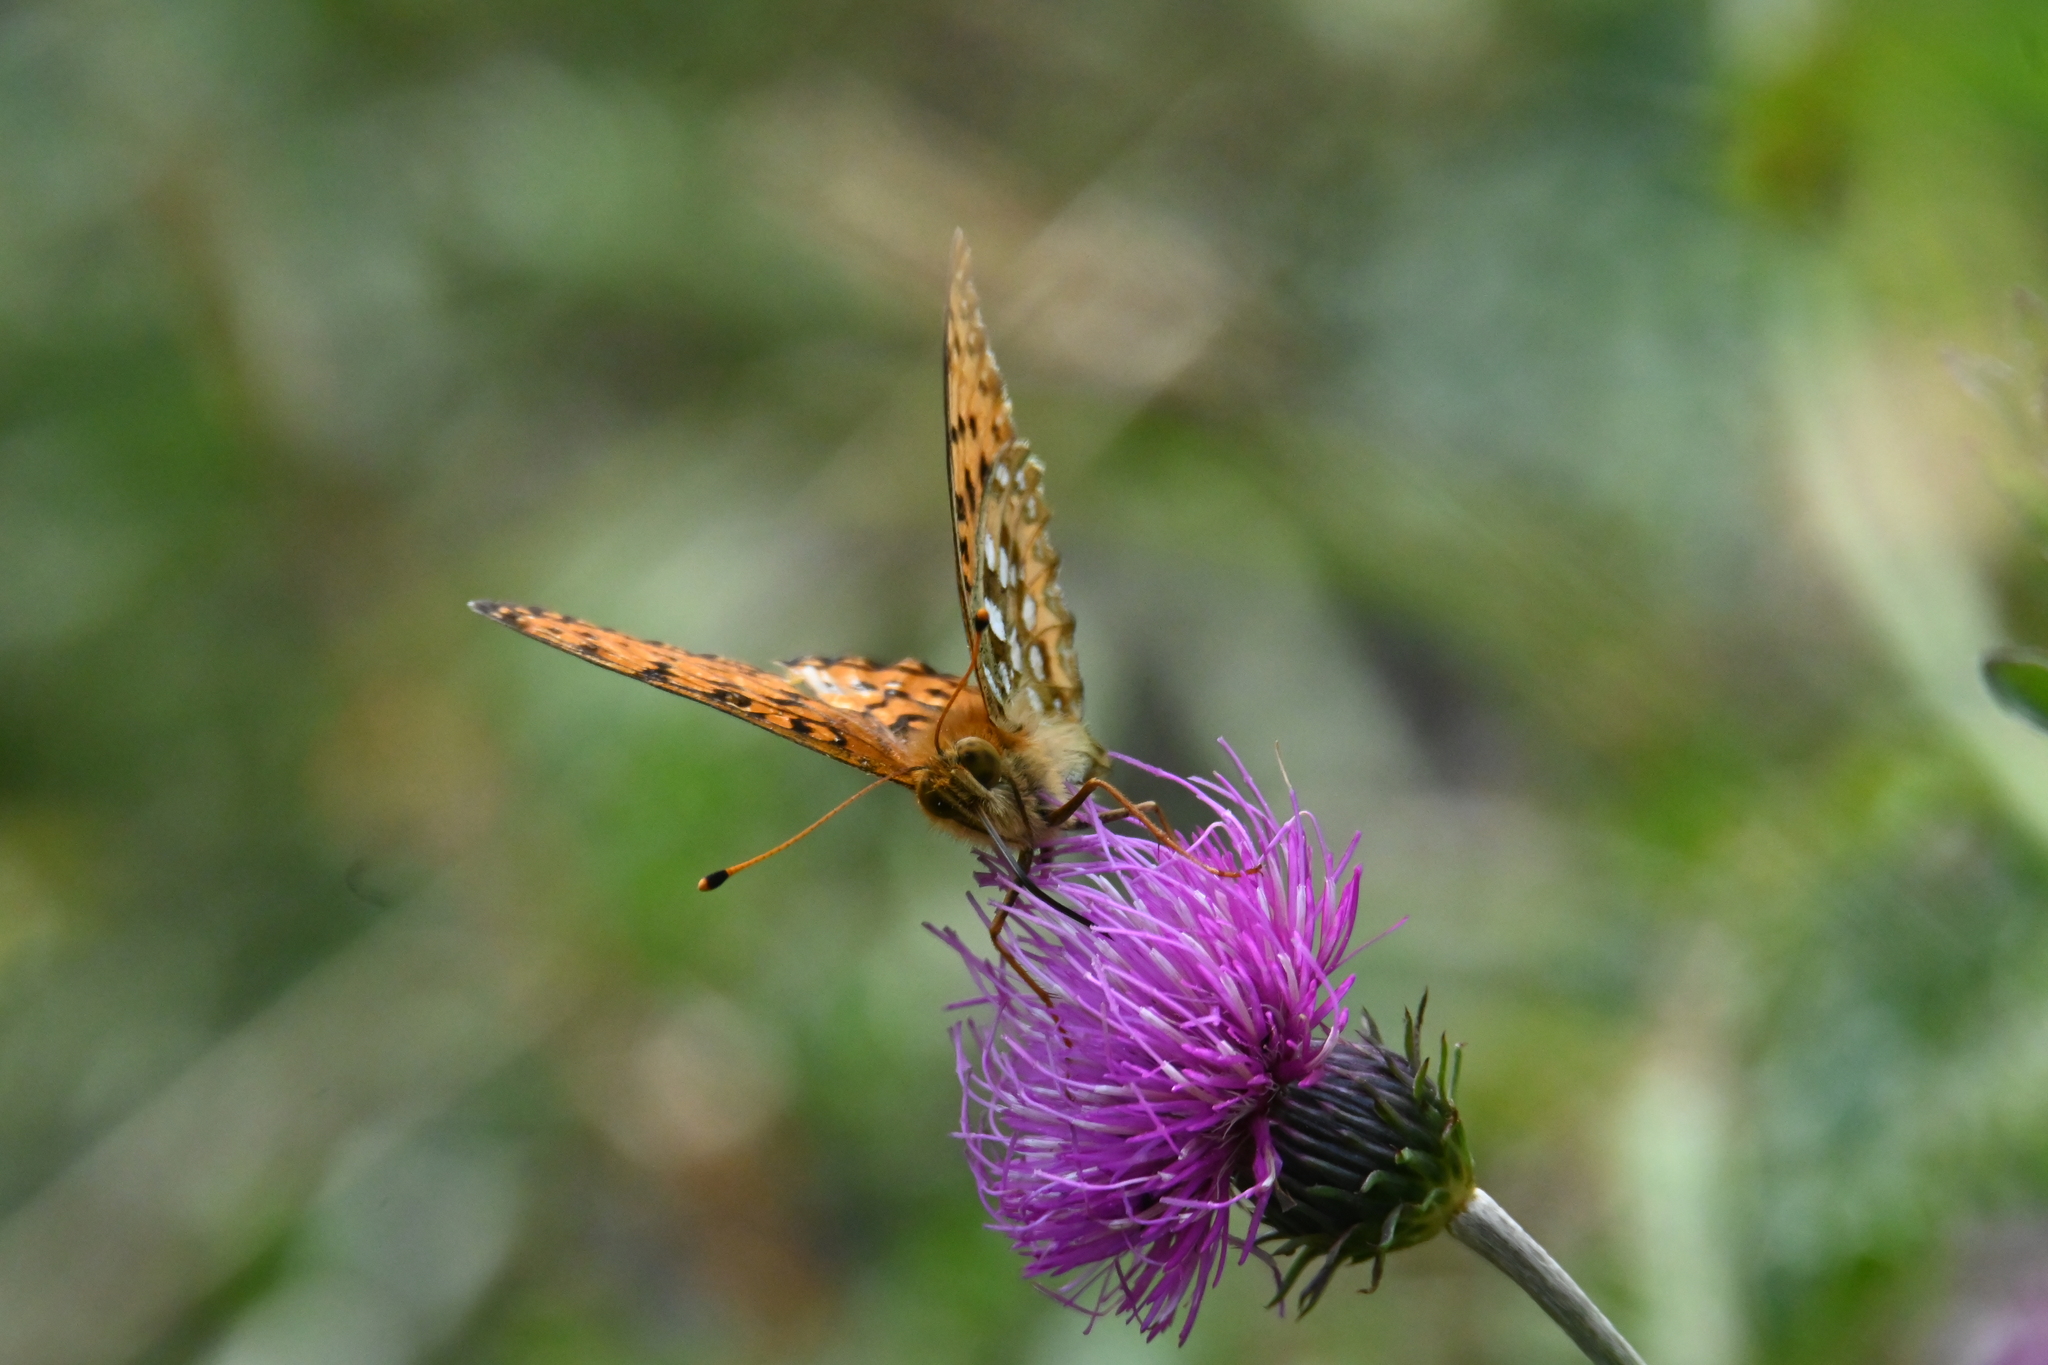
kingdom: Animalia
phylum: Arthropoda
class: Insecta
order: Lepidoptera
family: Nymphalidae
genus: Speyeria
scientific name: Speyeria aglaja
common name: Dark green fritillary
